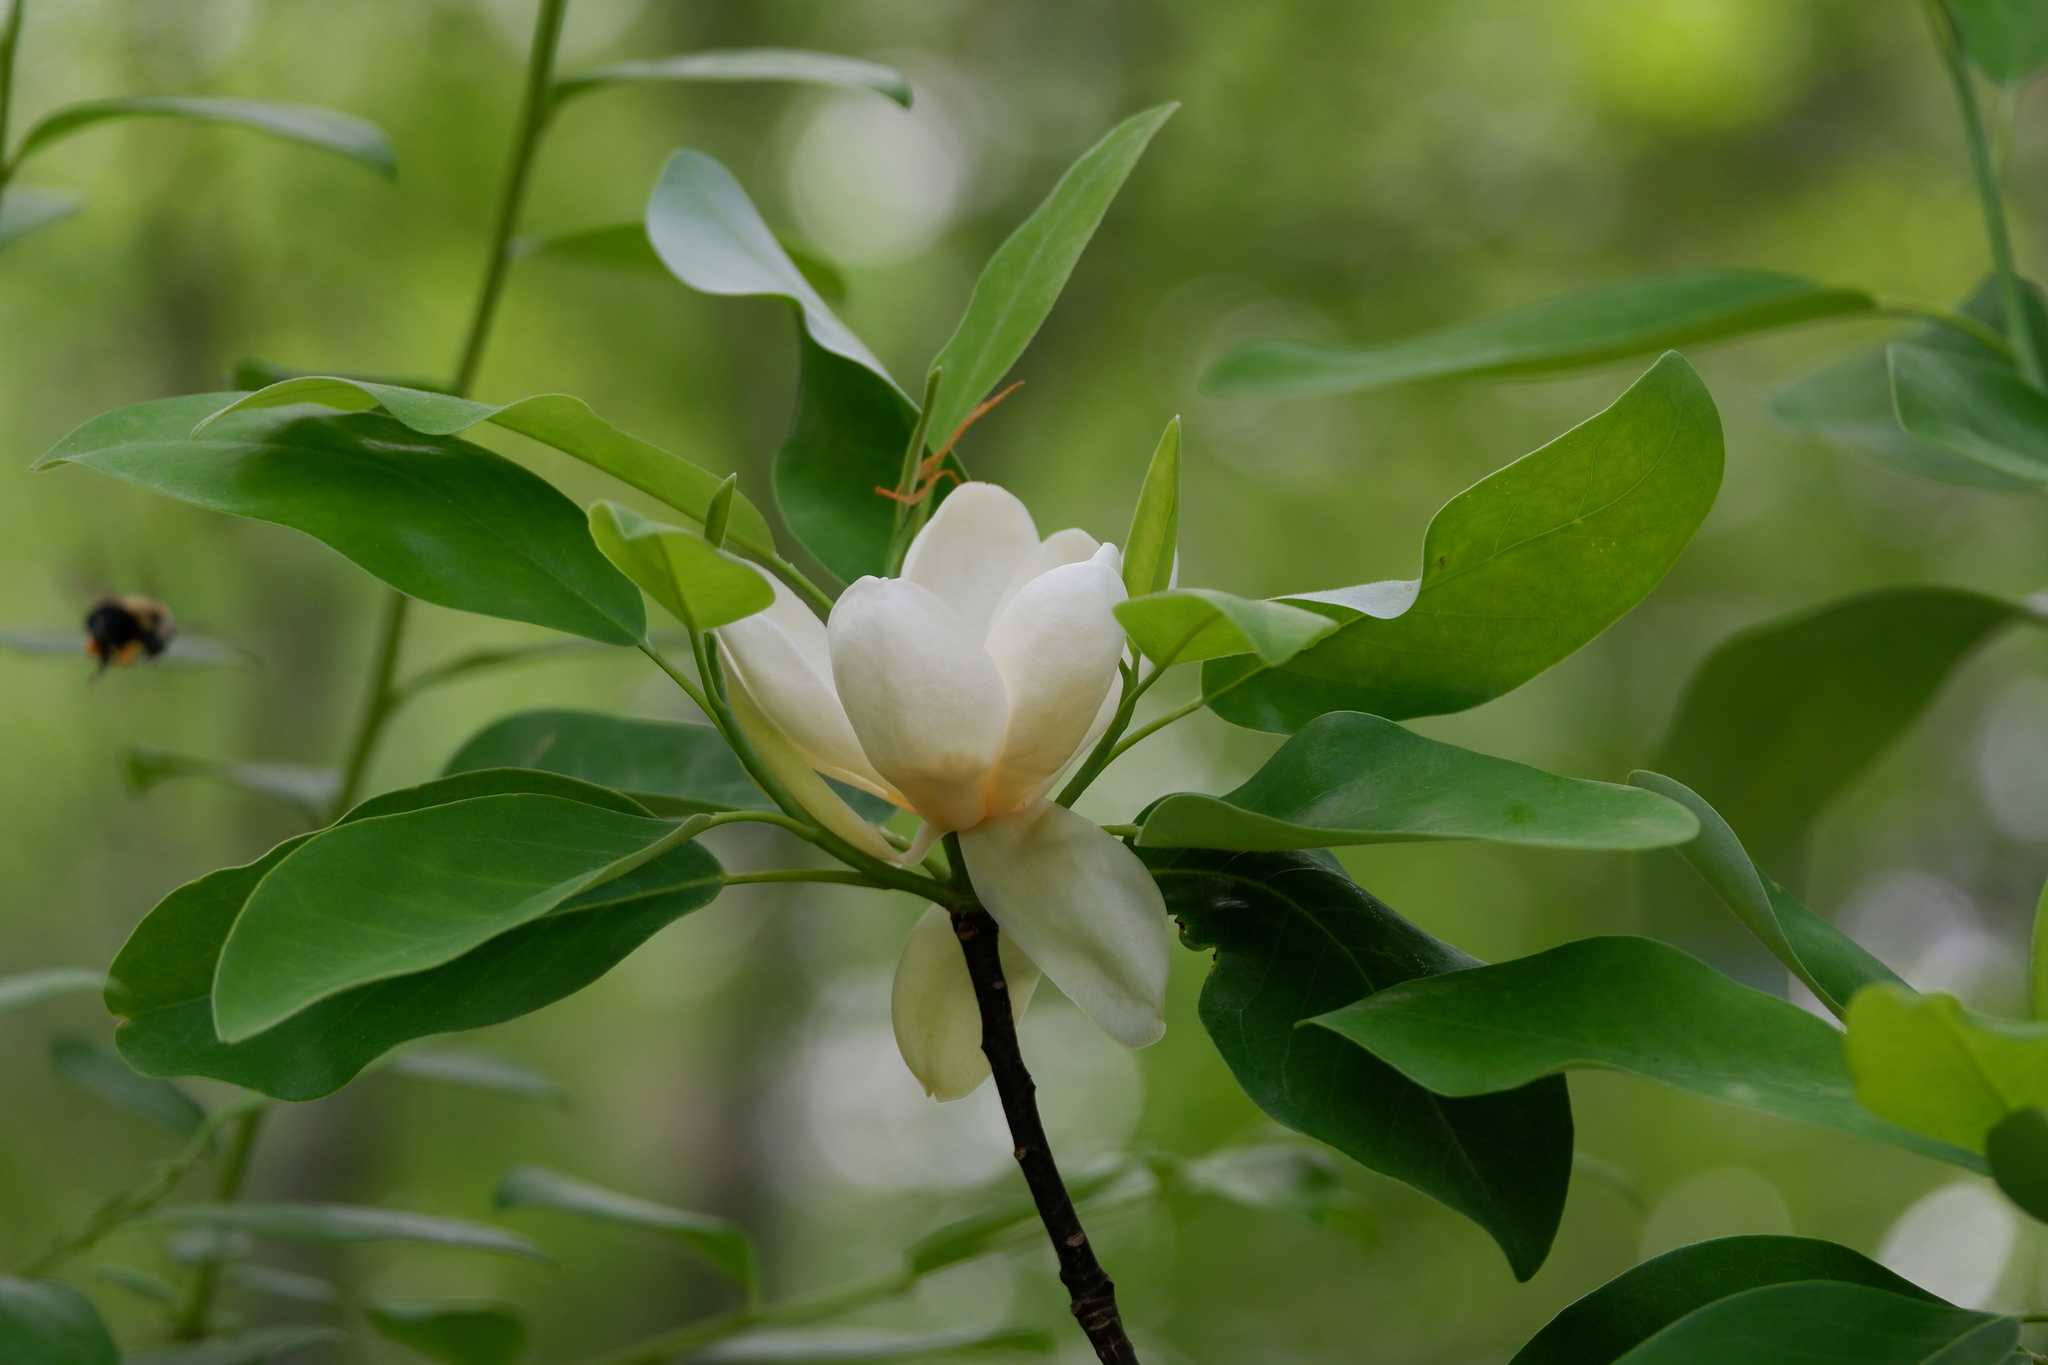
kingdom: Plantae
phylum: Tracheophyta
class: Magnoliopsida
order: Magnoliales
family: Magnoliaceae
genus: Magnolia
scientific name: Magnolia virginiana
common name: Swamp bay
